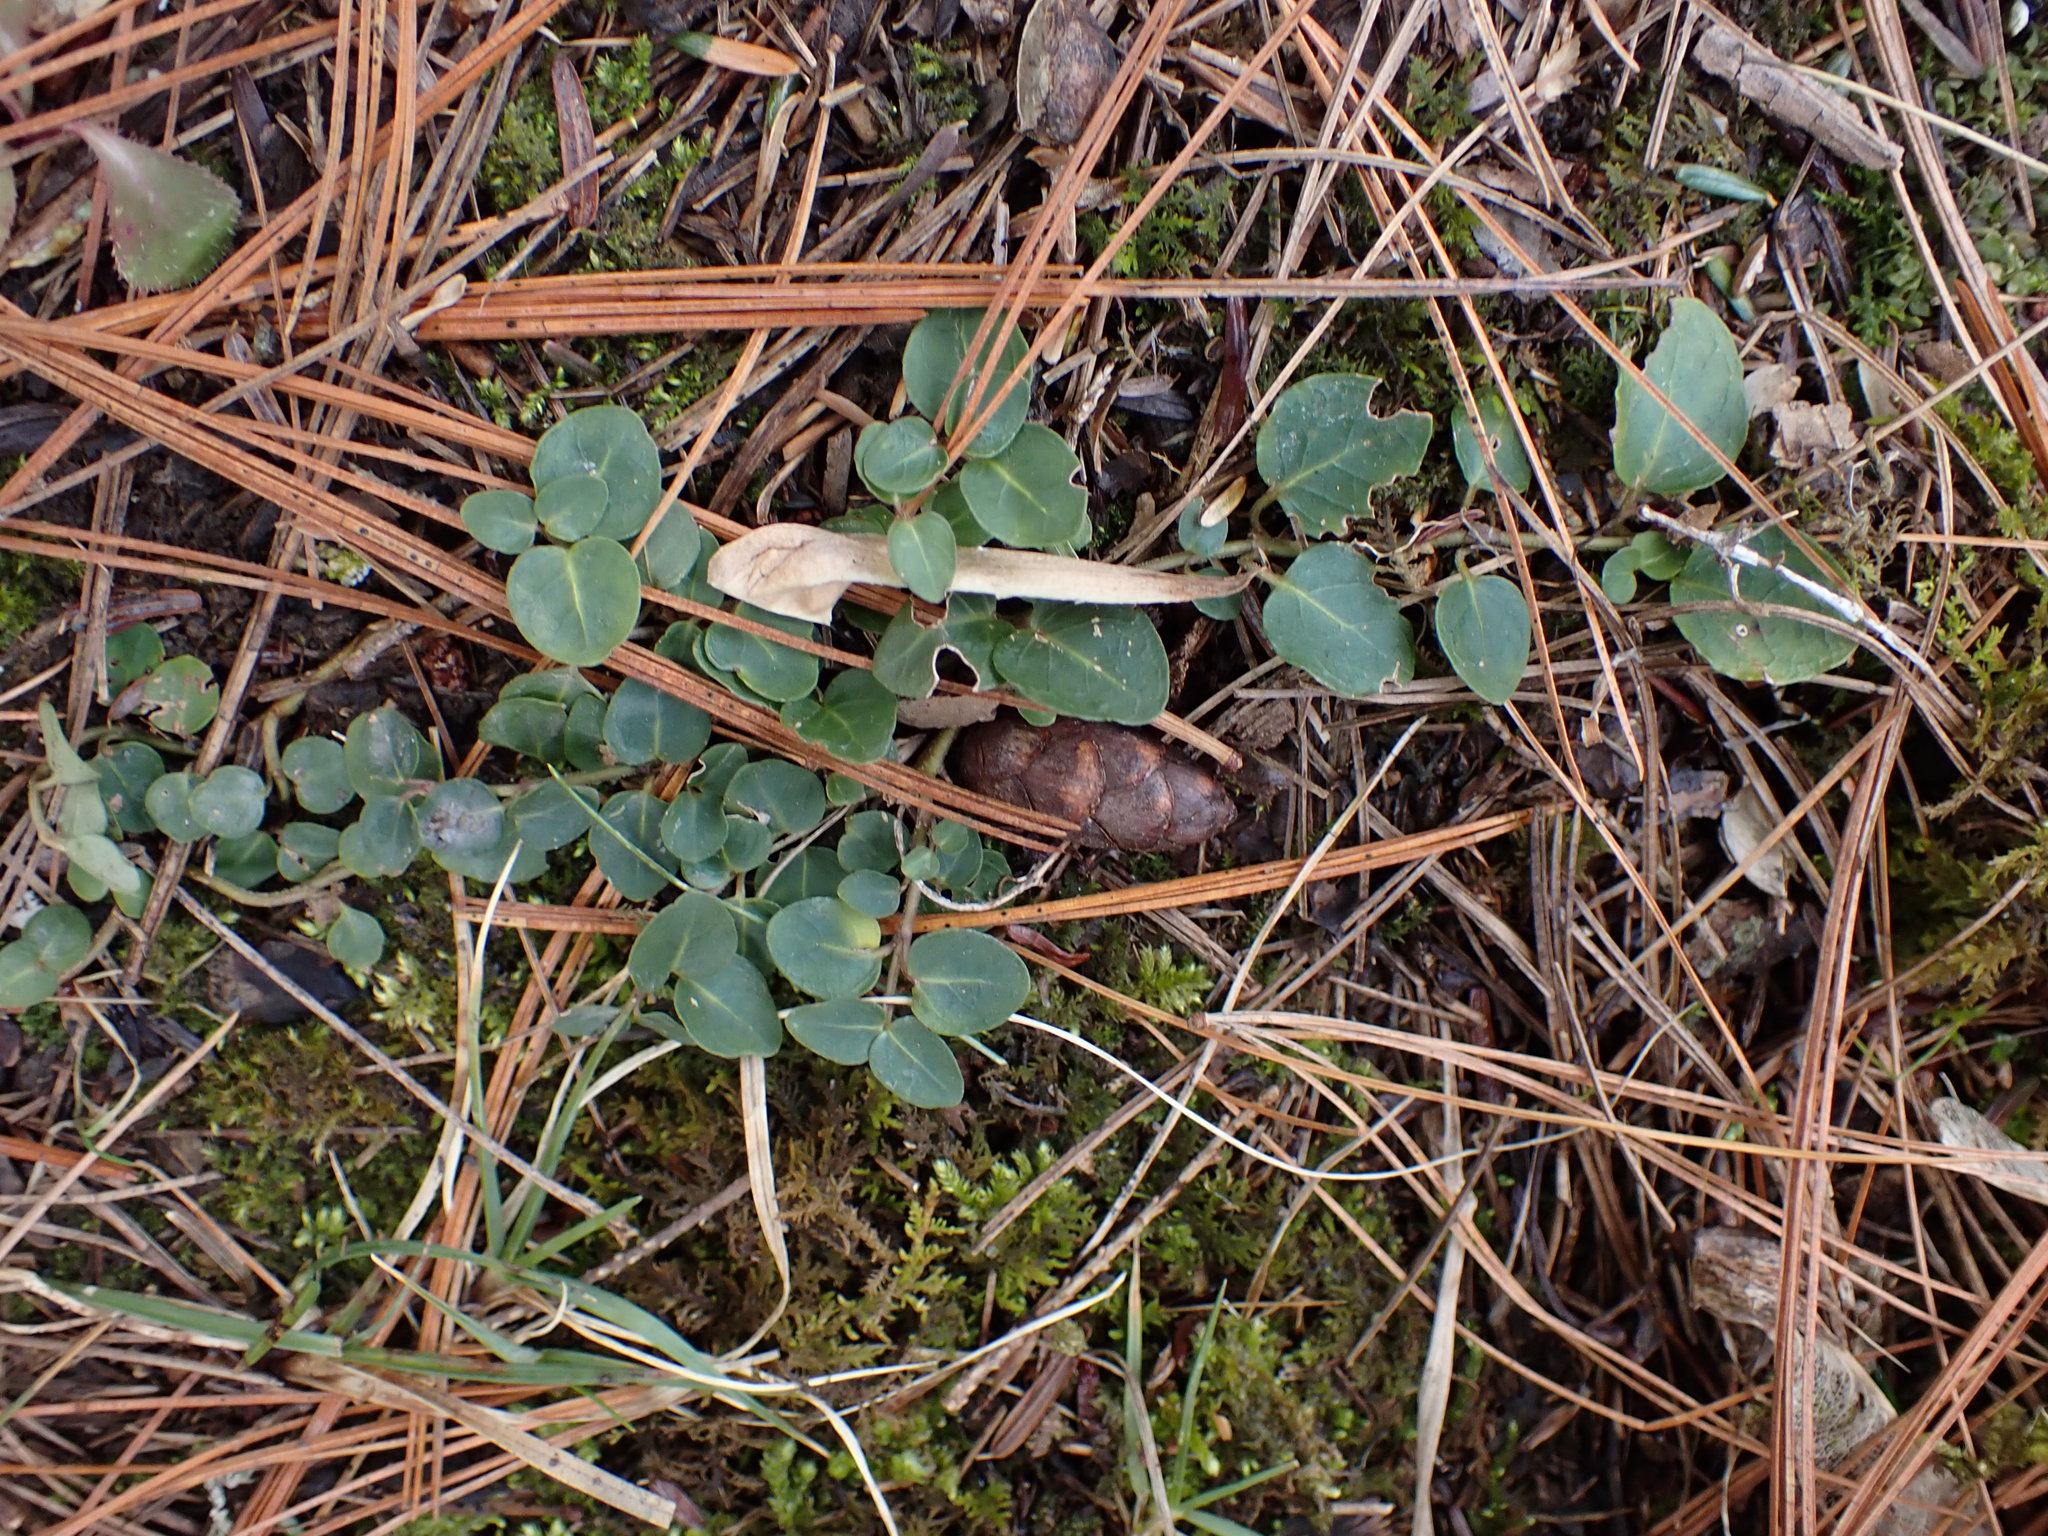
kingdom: Plantae
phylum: Tracheophyta
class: Magnoliopsida
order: Gentianales
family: Rubiaceae
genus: Mitchella
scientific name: Mitchella repens
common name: Partridge-berry
